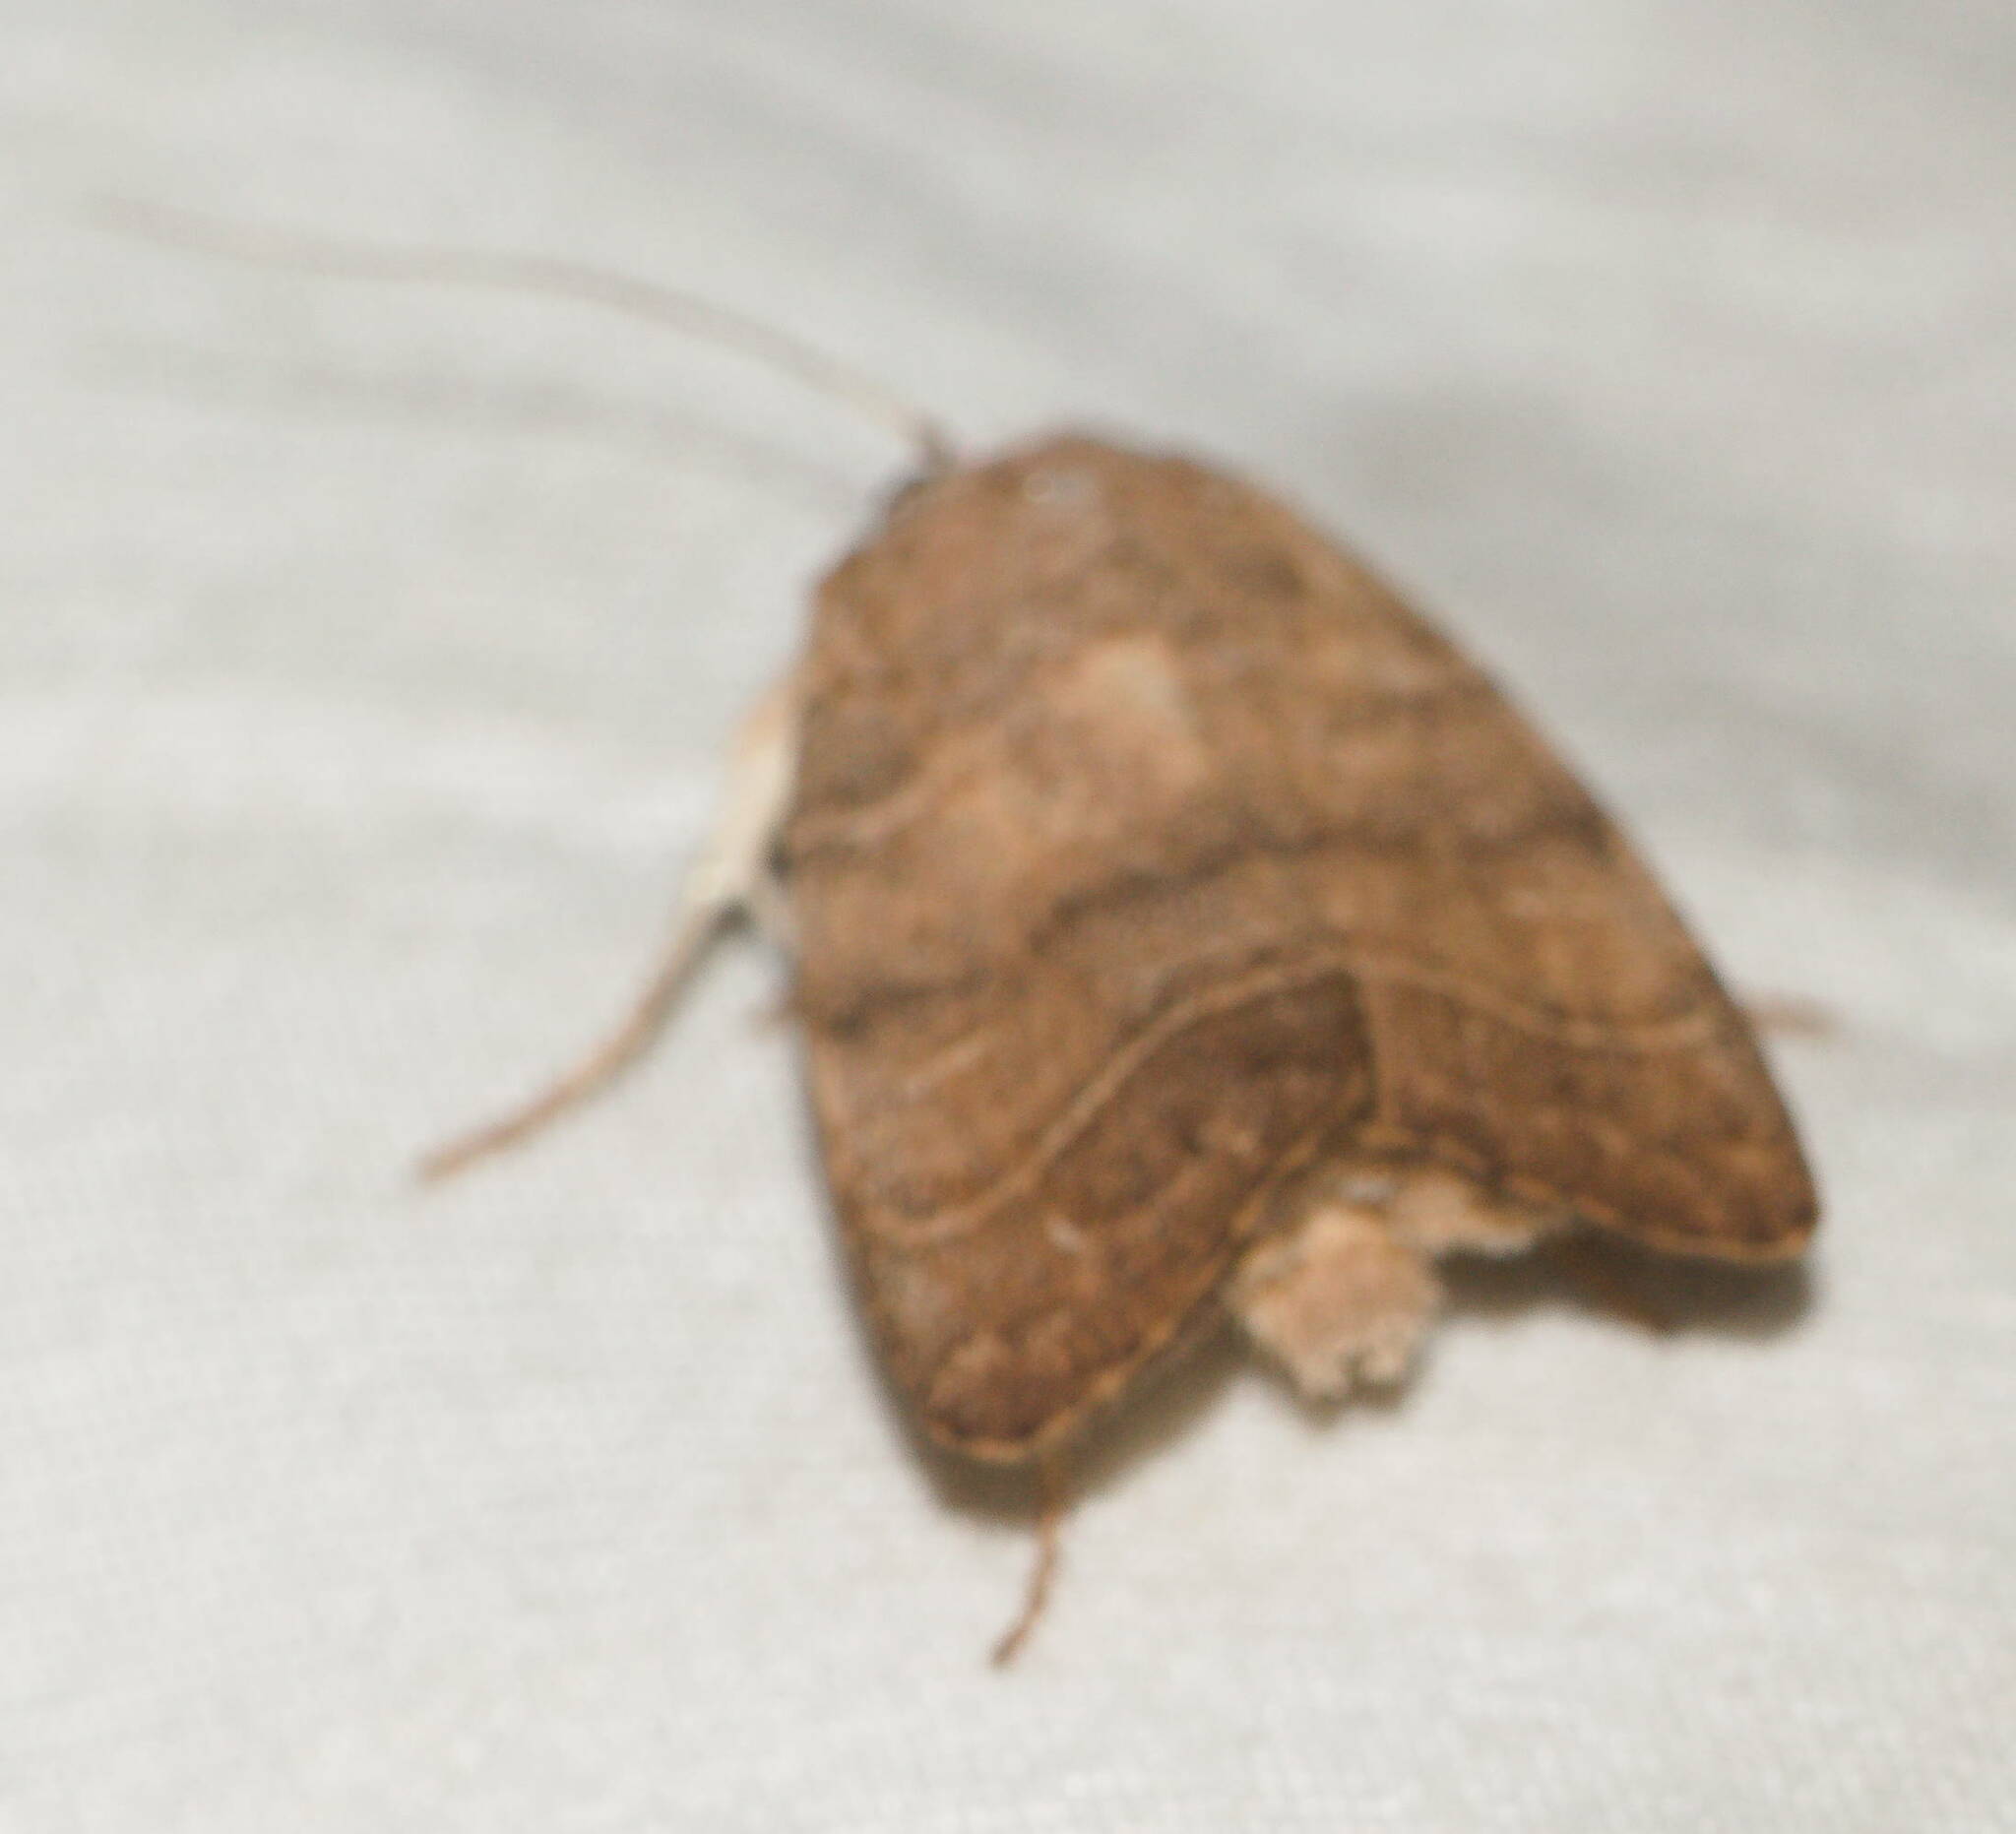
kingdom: Animalia
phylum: Arthropoda
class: Insecta
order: Lepidoptera
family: Noctuidae
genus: Athetis
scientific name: Athetis thoracica
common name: Cutworm
